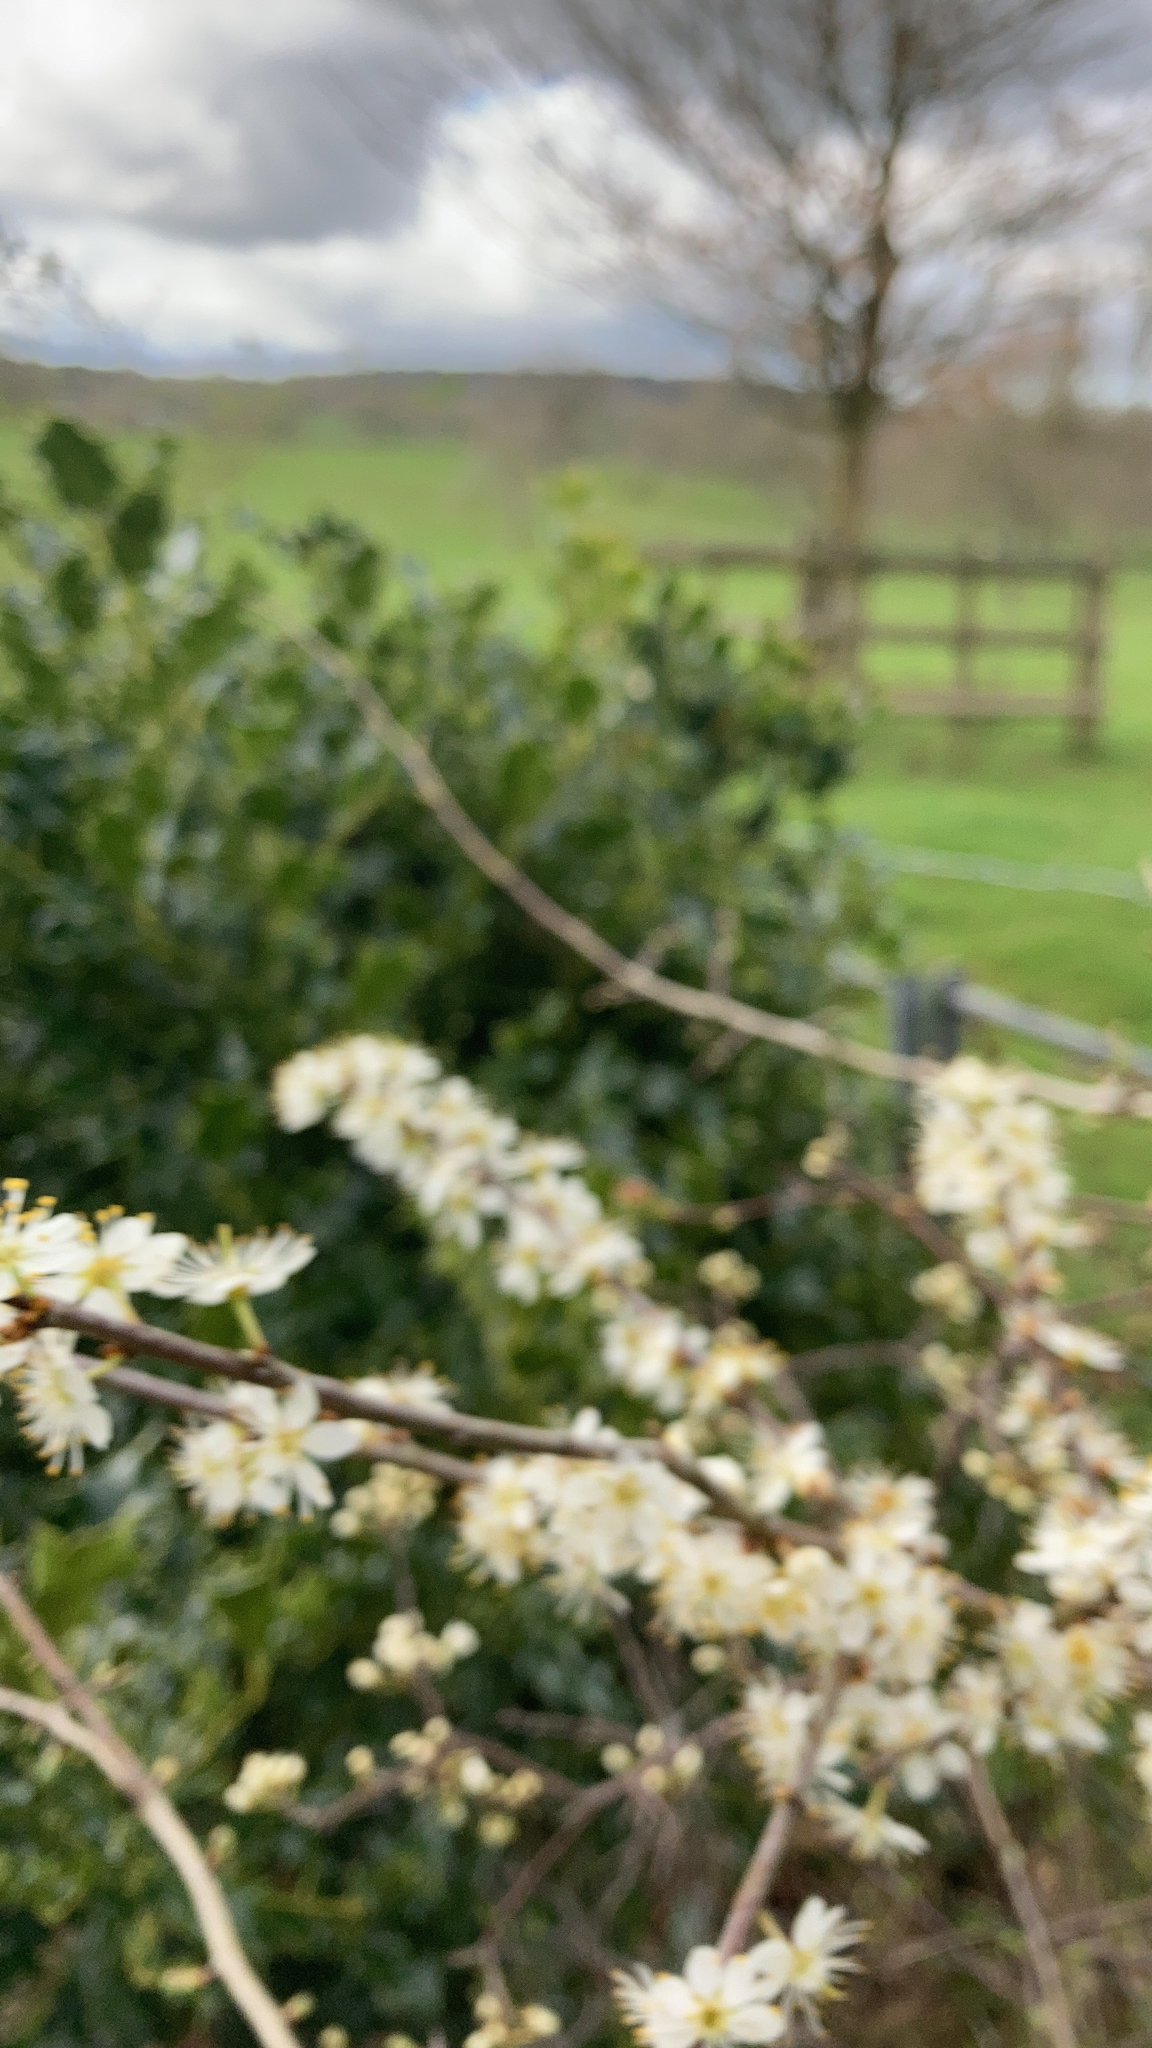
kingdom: Plantae
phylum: Tracheophyta
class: Magnoliopsida
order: Rosales
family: Rosaceae
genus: Prunus
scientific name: Prunus spinosa
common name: Blackthorn
